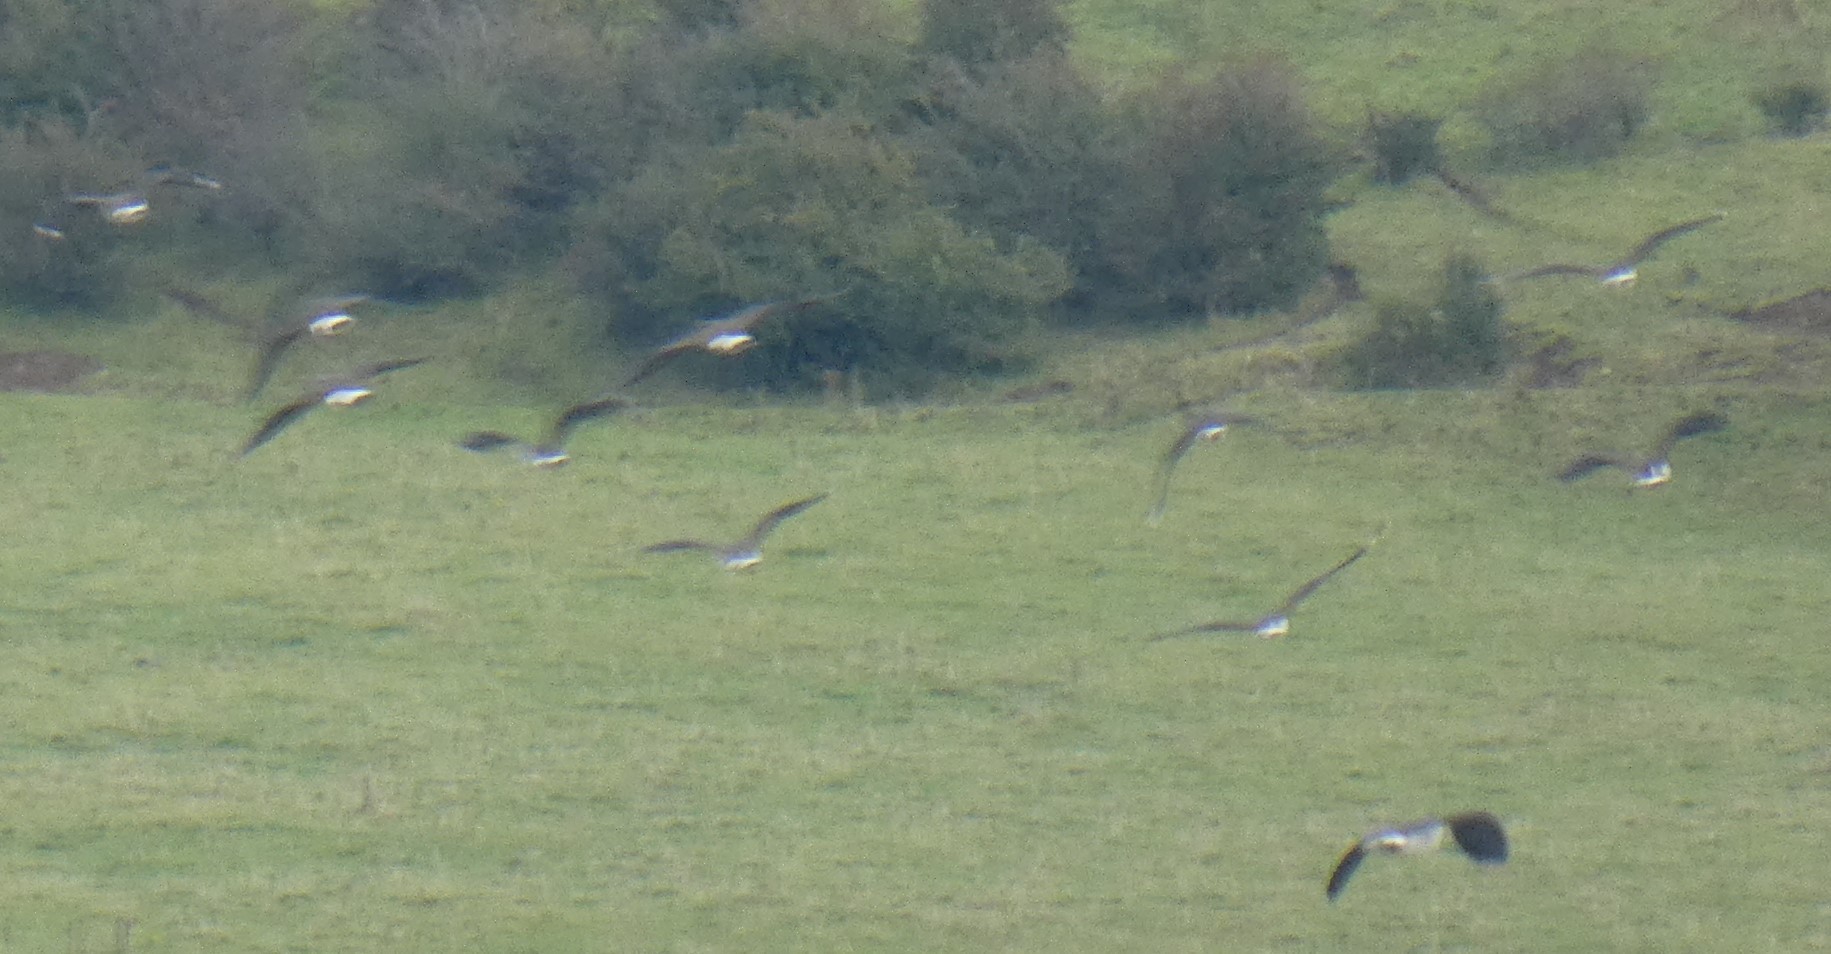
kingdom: Animalia
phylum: Chordata
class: Aves
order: Charadriiformes
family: Charadriidae
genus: Vanellus
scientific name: Vanellus vanellus
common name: Northern lapwing
